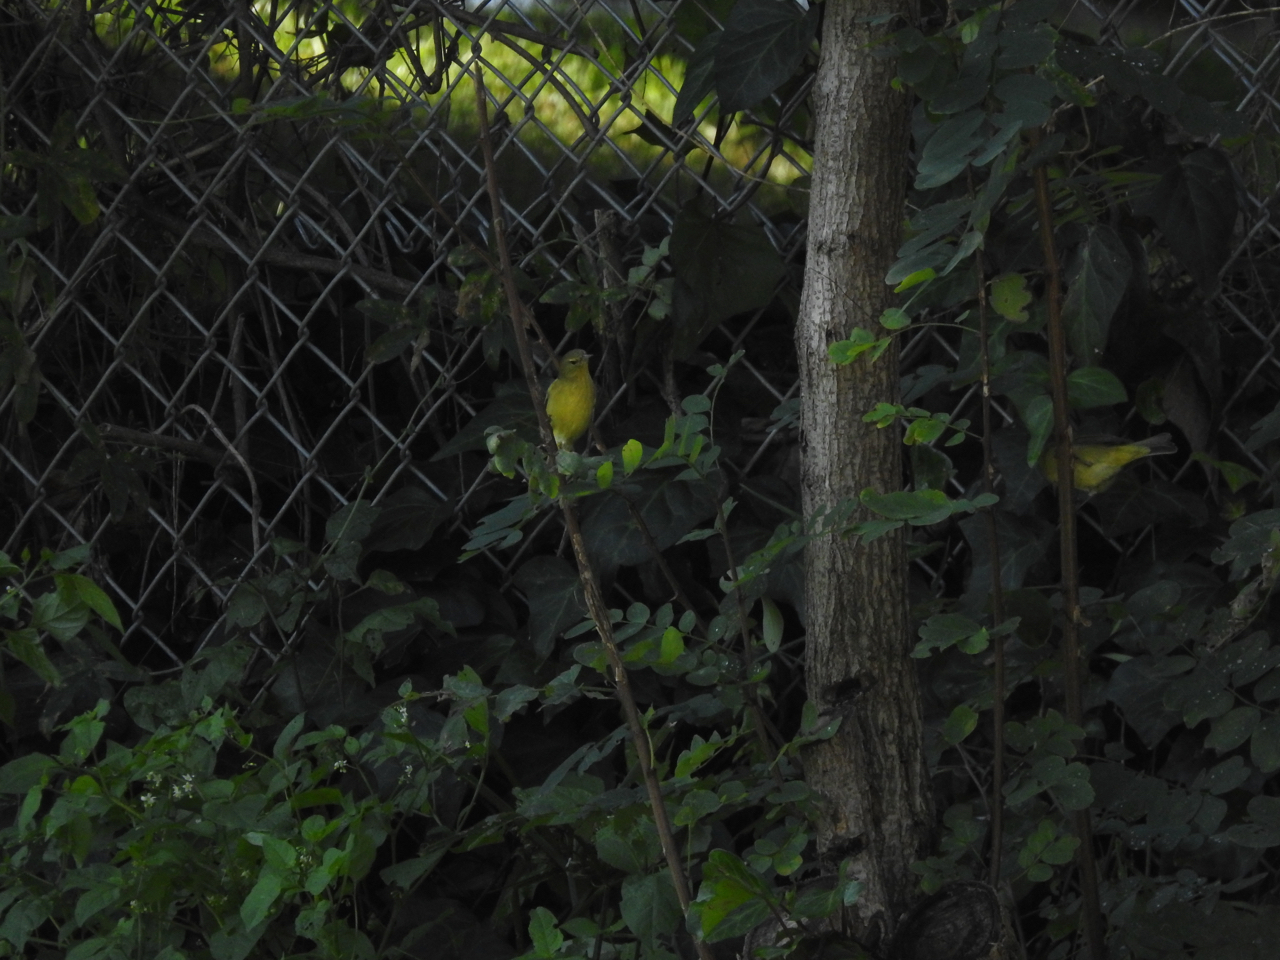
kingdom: Animalia
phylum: Chordata
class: Aves
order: Passeriformes
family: Parulidae
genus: Leiothlypis
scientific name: Leiothlypis celata
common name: Orange-crowned warbler
